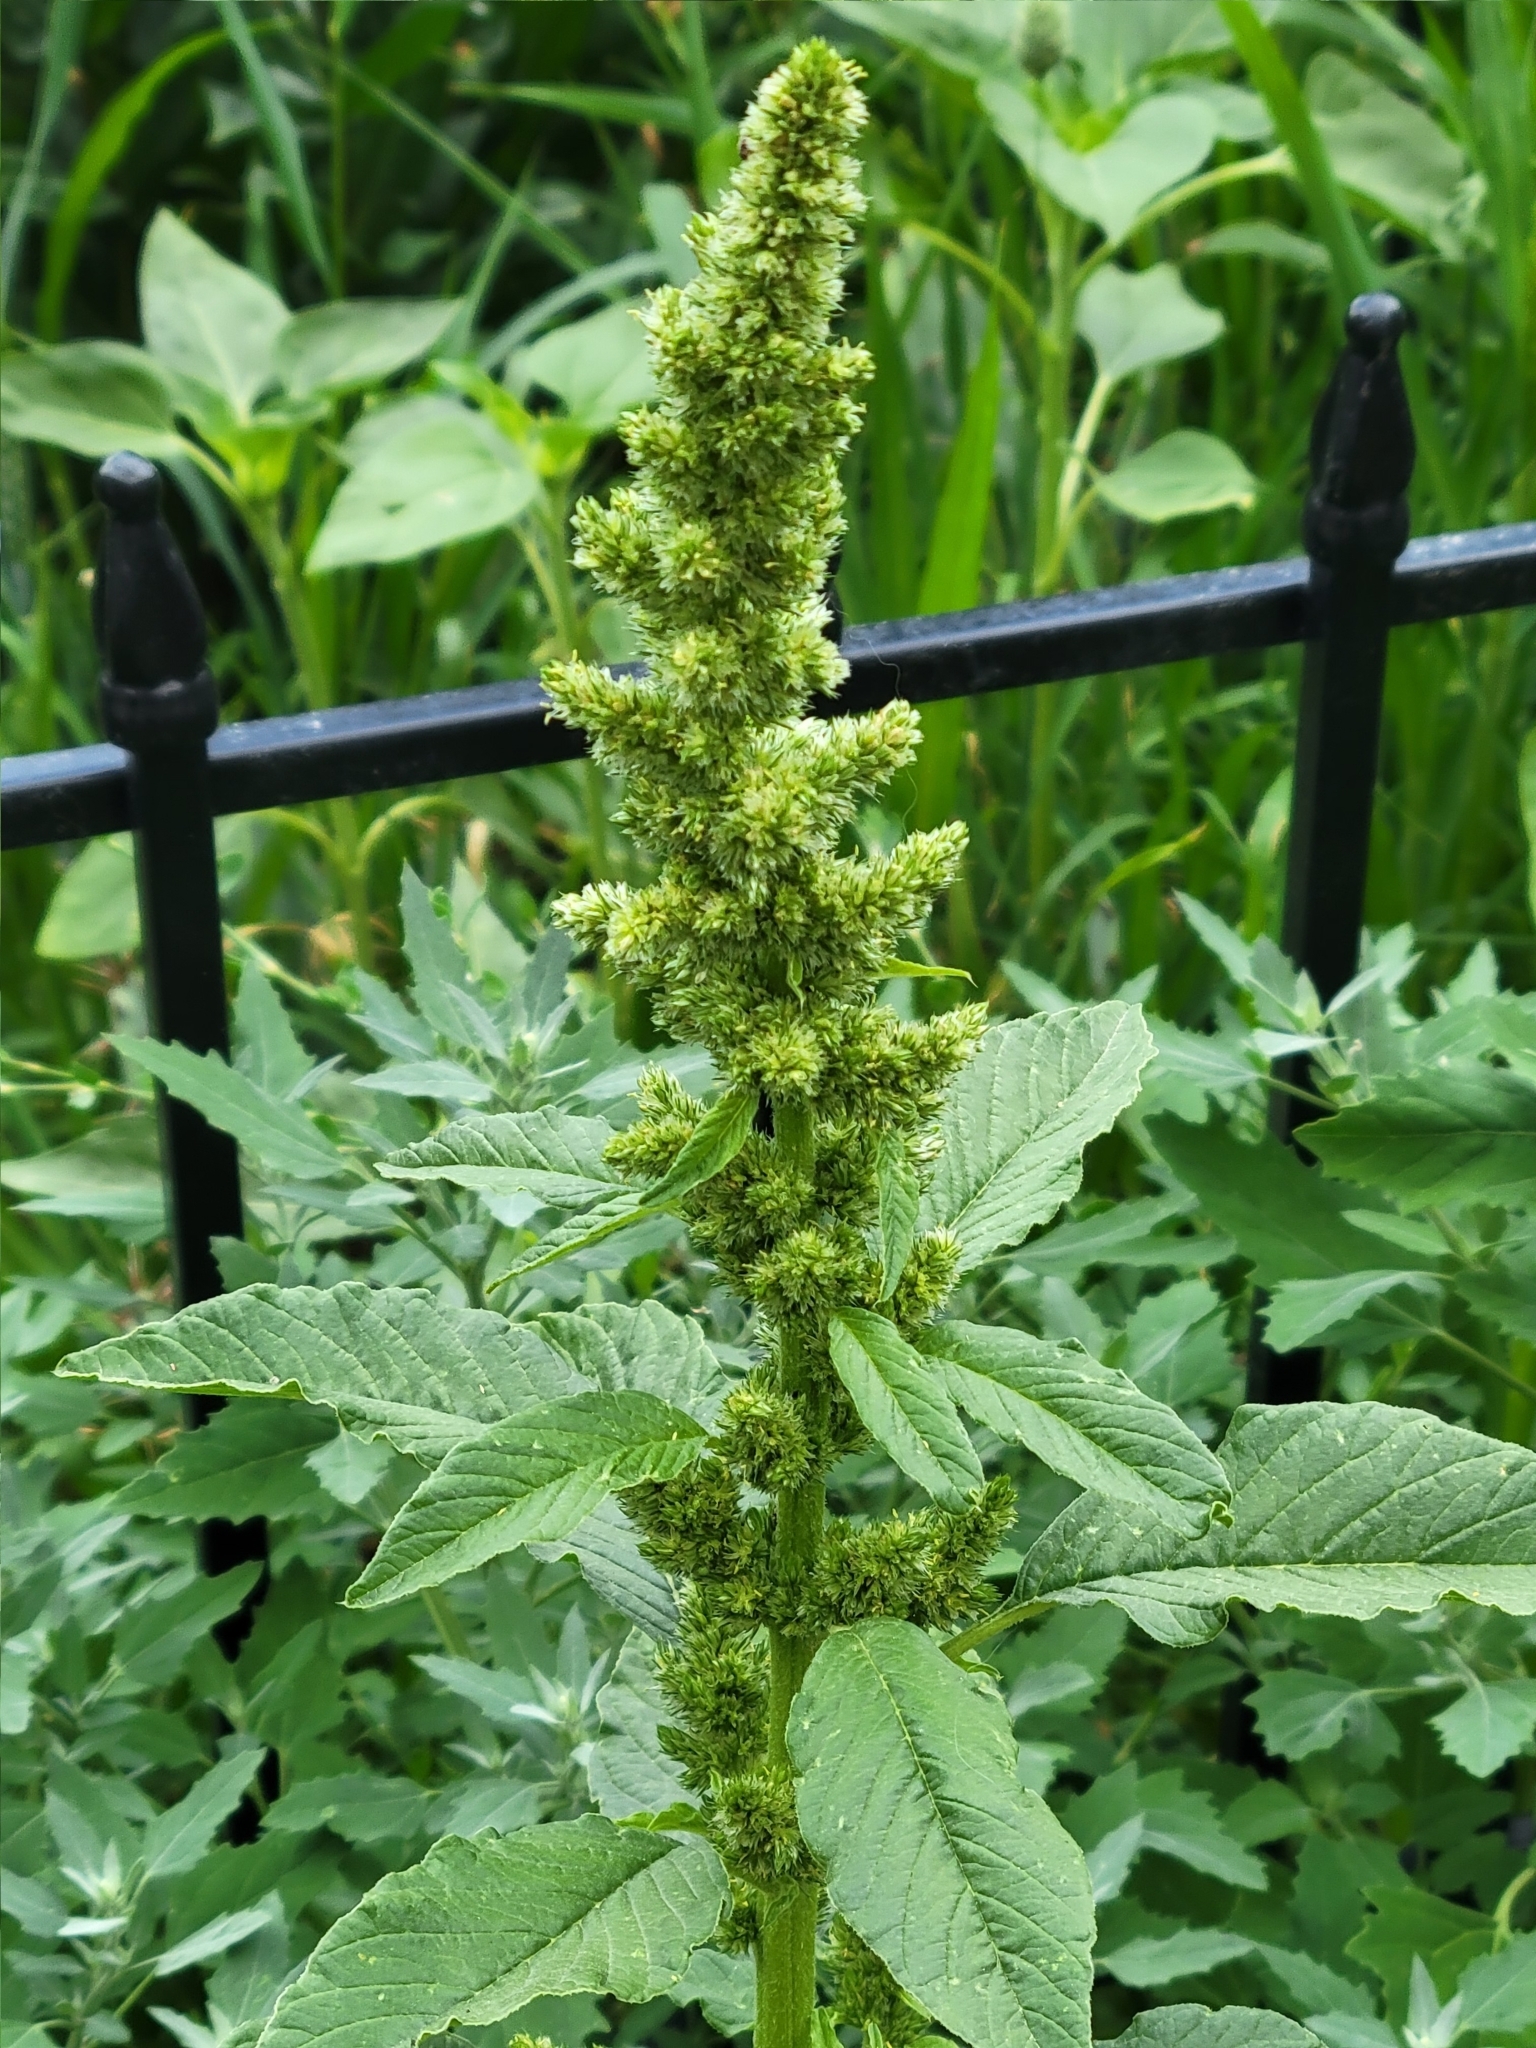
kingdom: Plantae
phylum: Tracheophyta
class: Magnoliopsida
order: Caryophyllales
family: Amaranthaceae
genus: Amaranthus
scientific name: Amaranthus retroflexus
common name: Redroot amaranth
